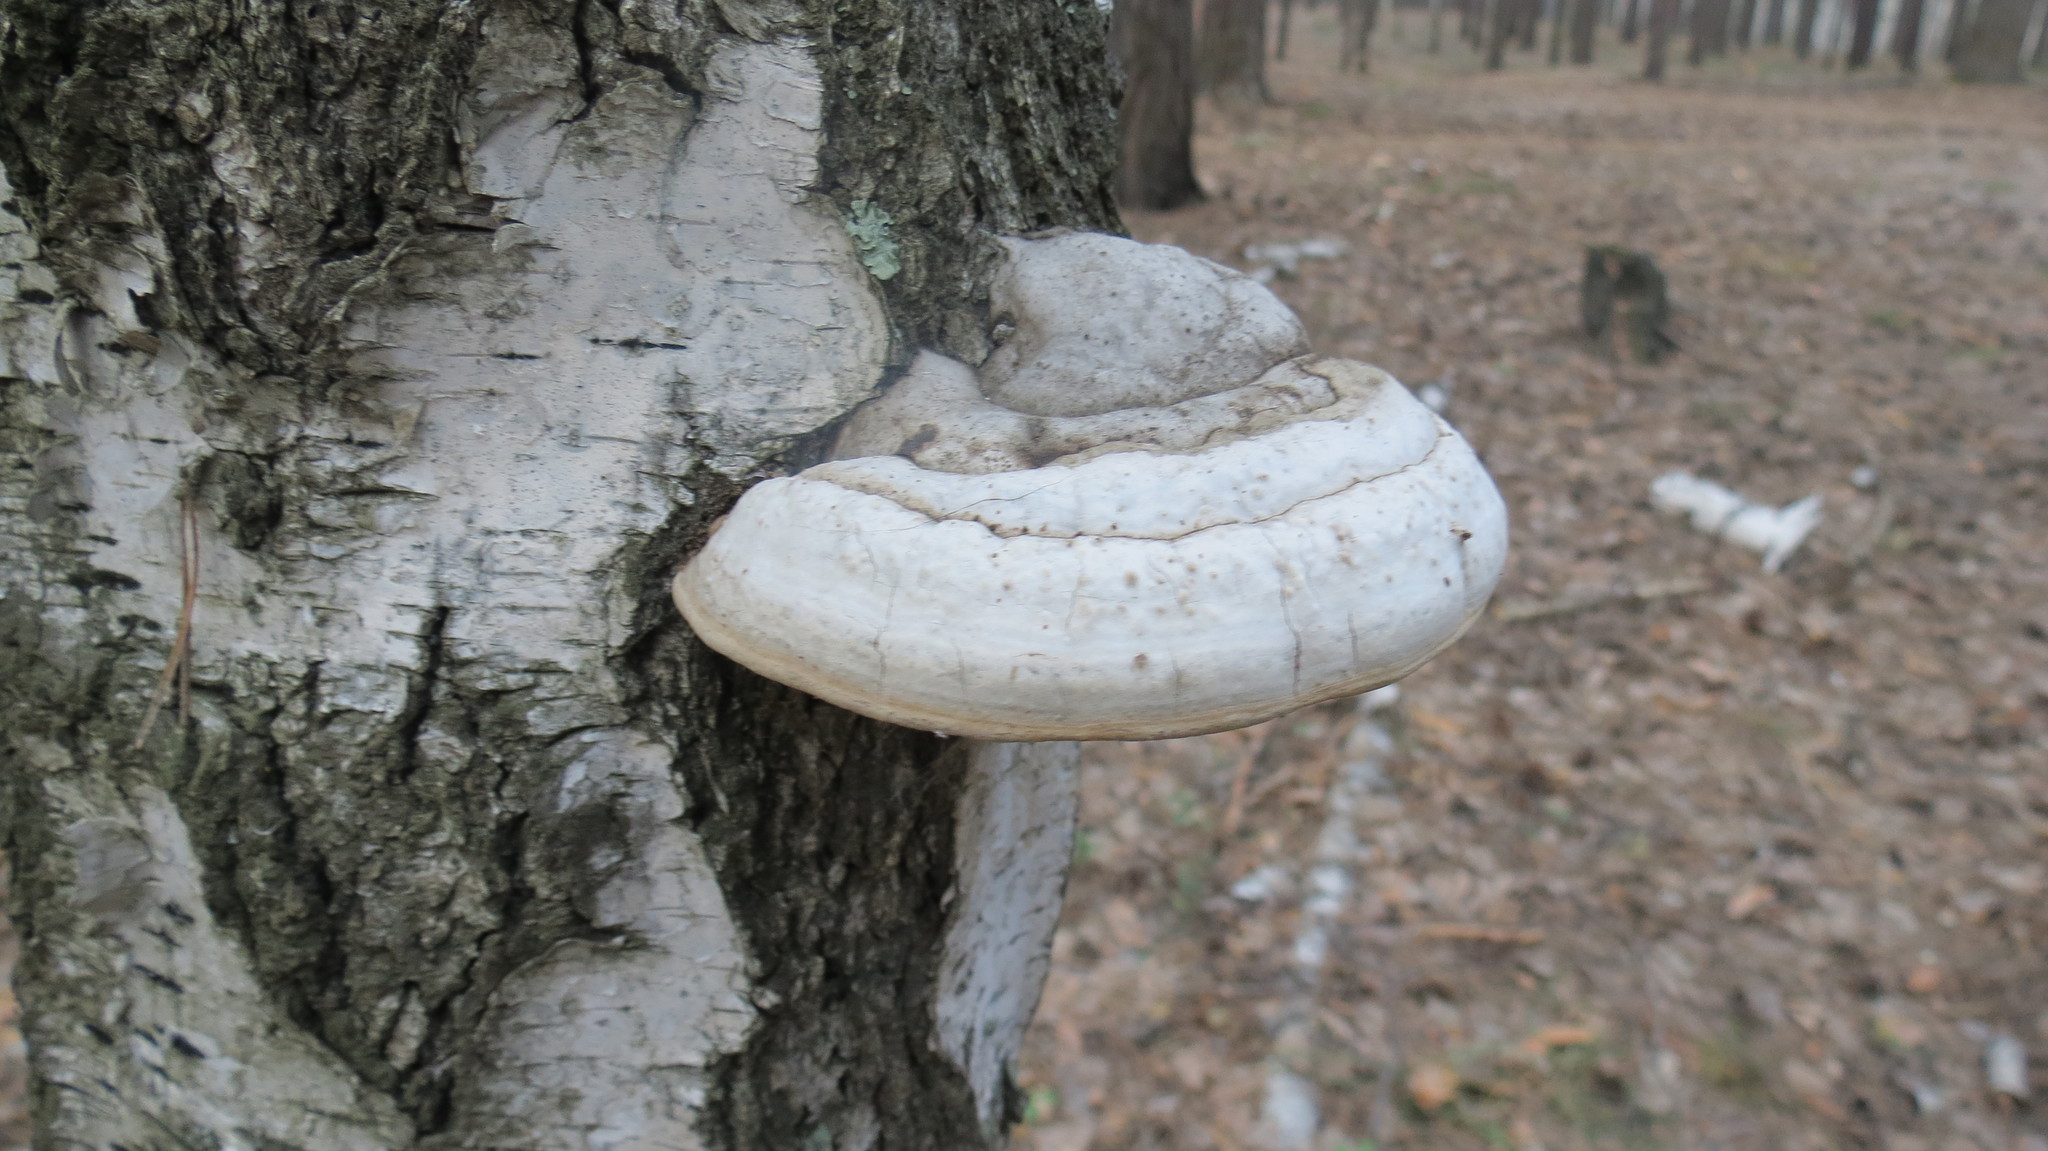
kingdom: Fungi
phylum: Basidiomycota
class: Agaricomycetes
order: Polyporales
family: Polyporaceae
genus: Fomes
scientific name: Fomes fomentarius
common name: Hoof fungus
